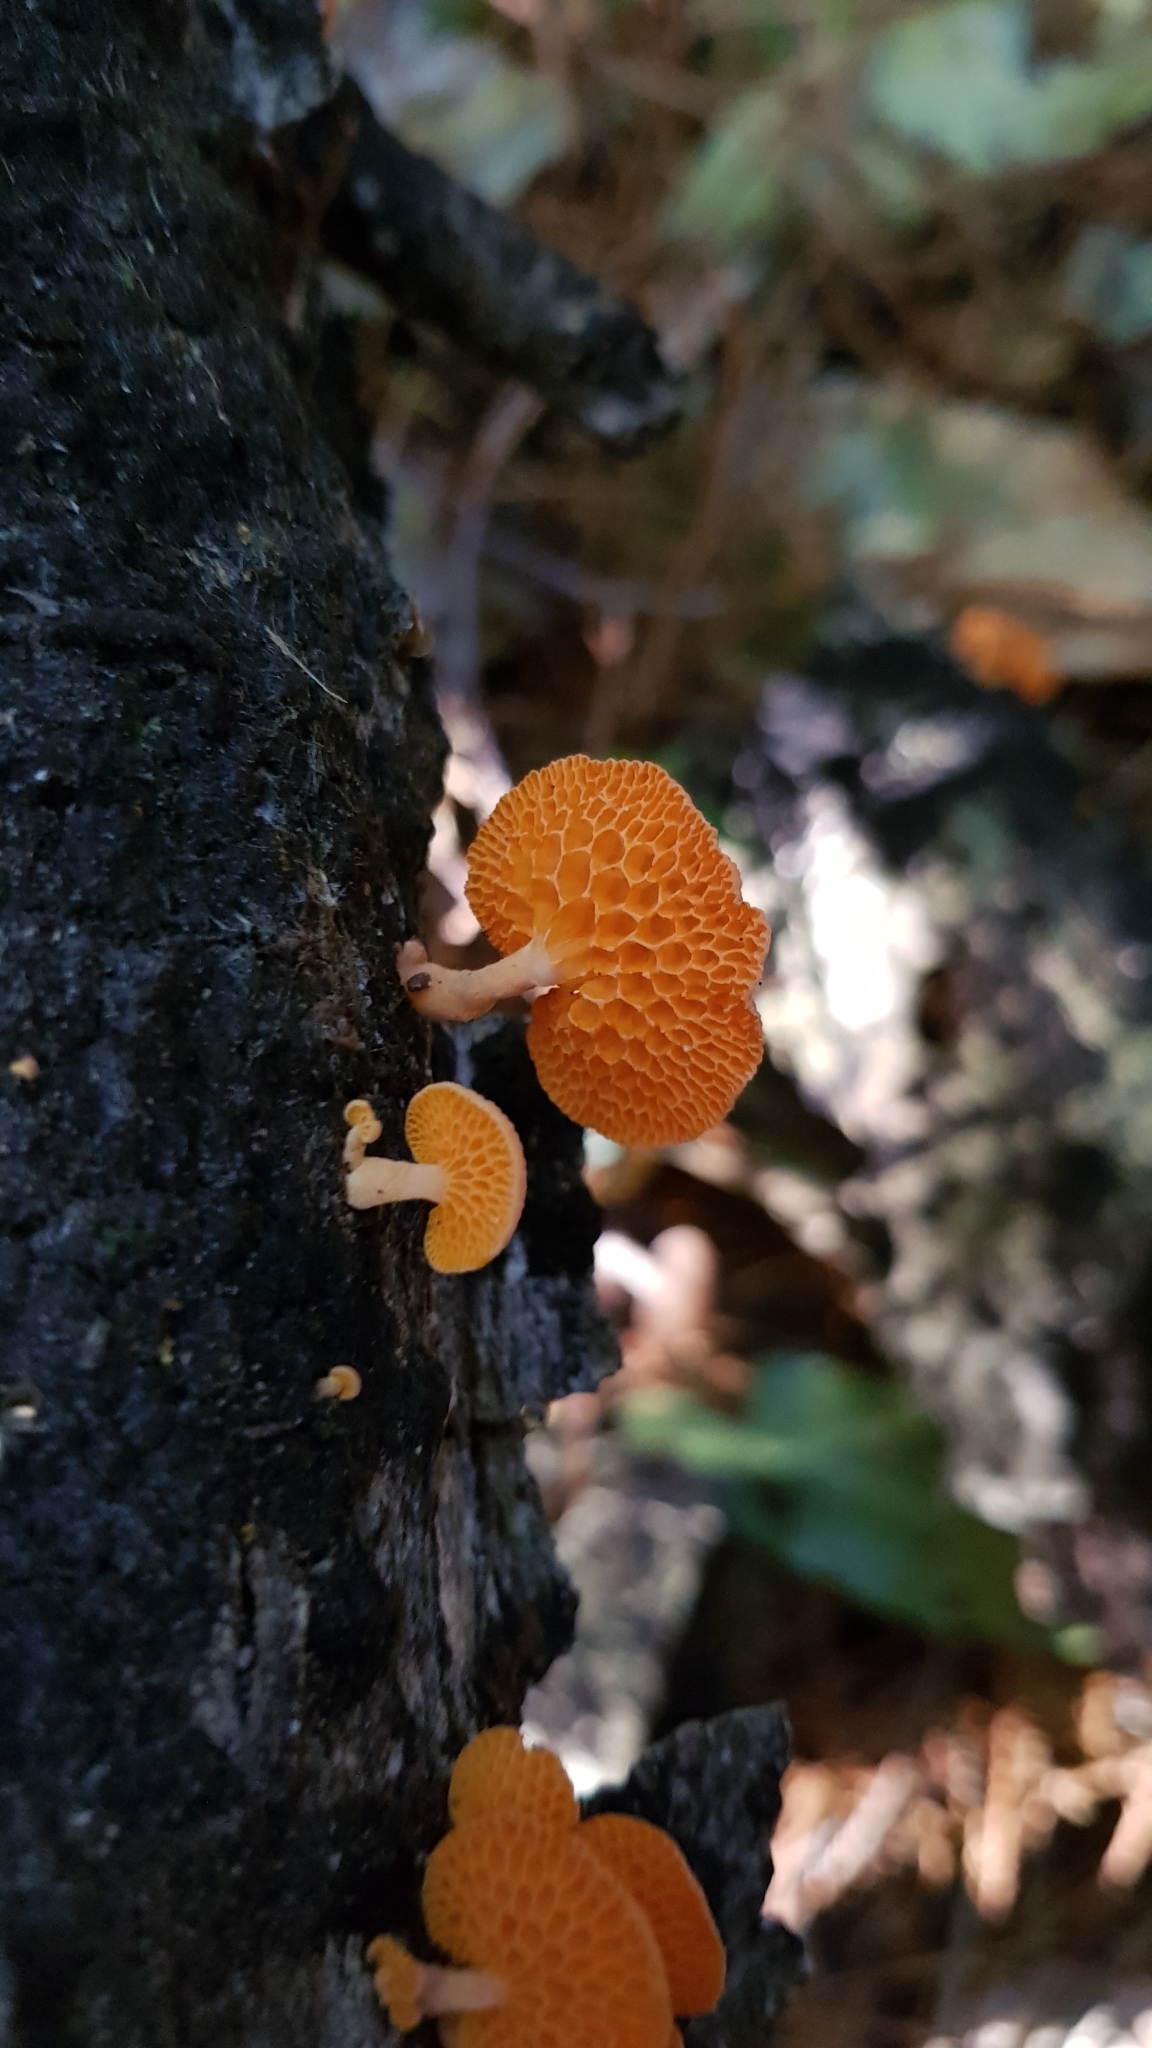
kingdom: Fungi
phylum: Basidiomycota
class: Agaricomycetes
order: Agaricales
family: Mycenaceae
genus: Favolaschia
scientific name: Favolaschia claudopus
